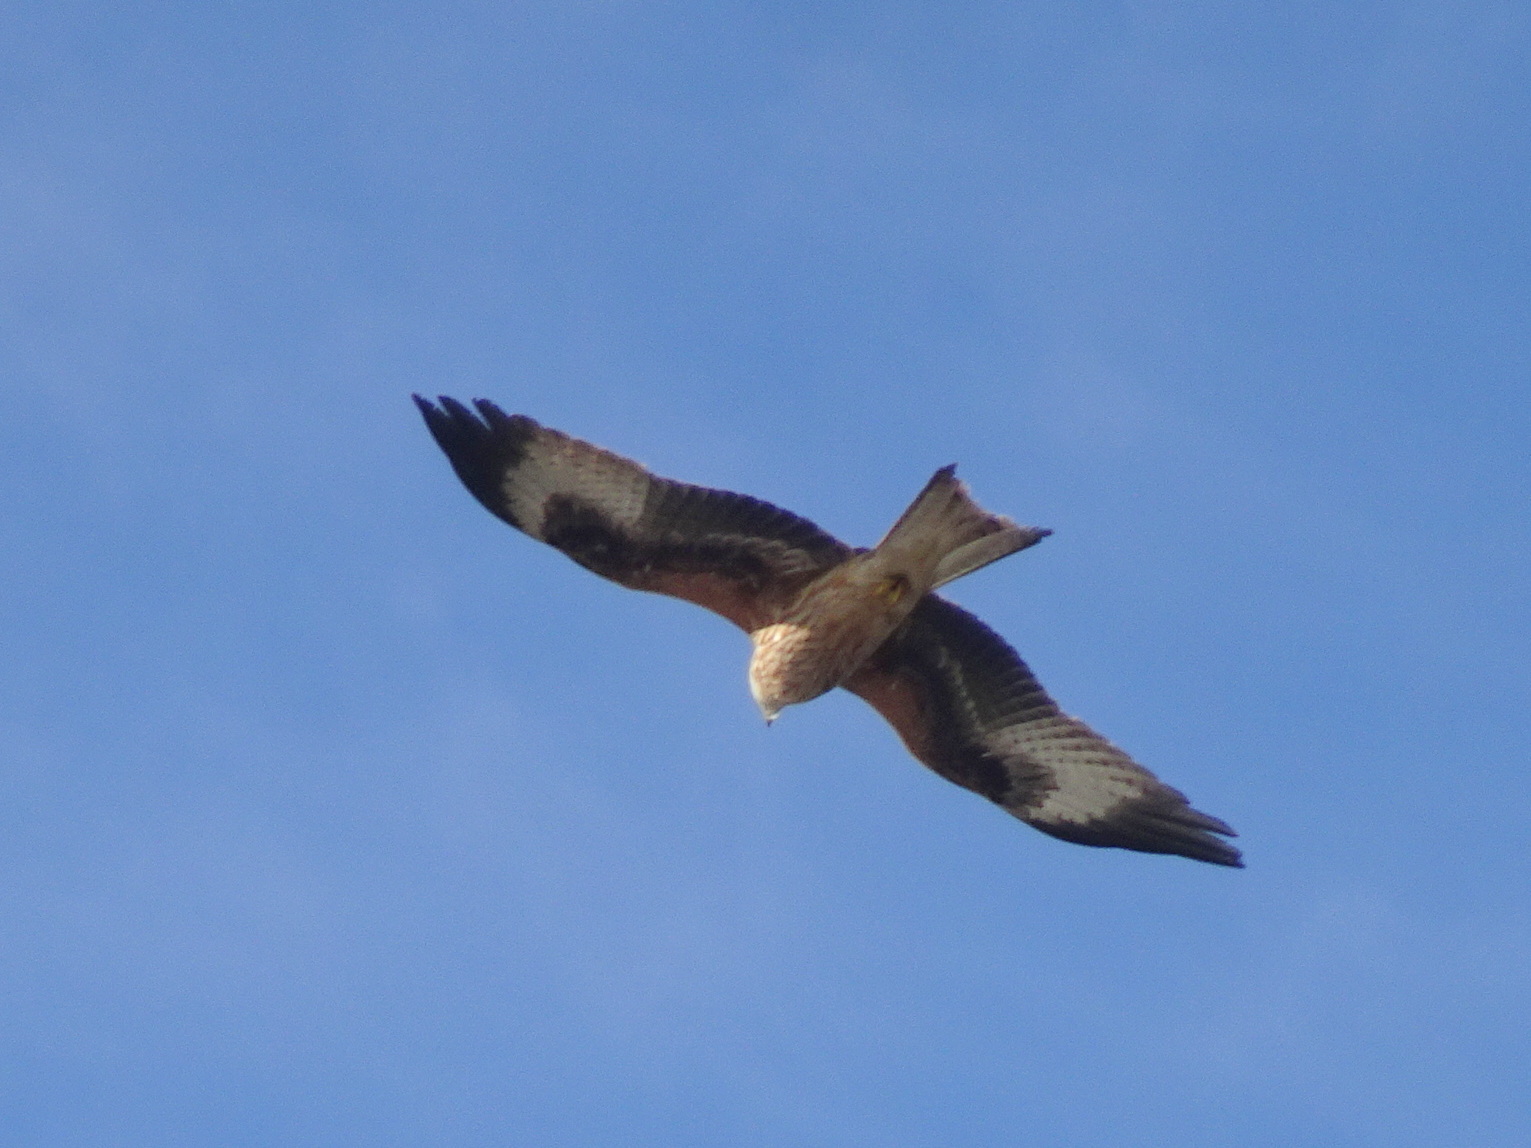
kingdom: Animalia
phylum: Chordata
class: Aves
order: Accipitriformes
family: Accipitridae
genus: Milvus
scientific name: Milvus milvus
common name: Red kite
